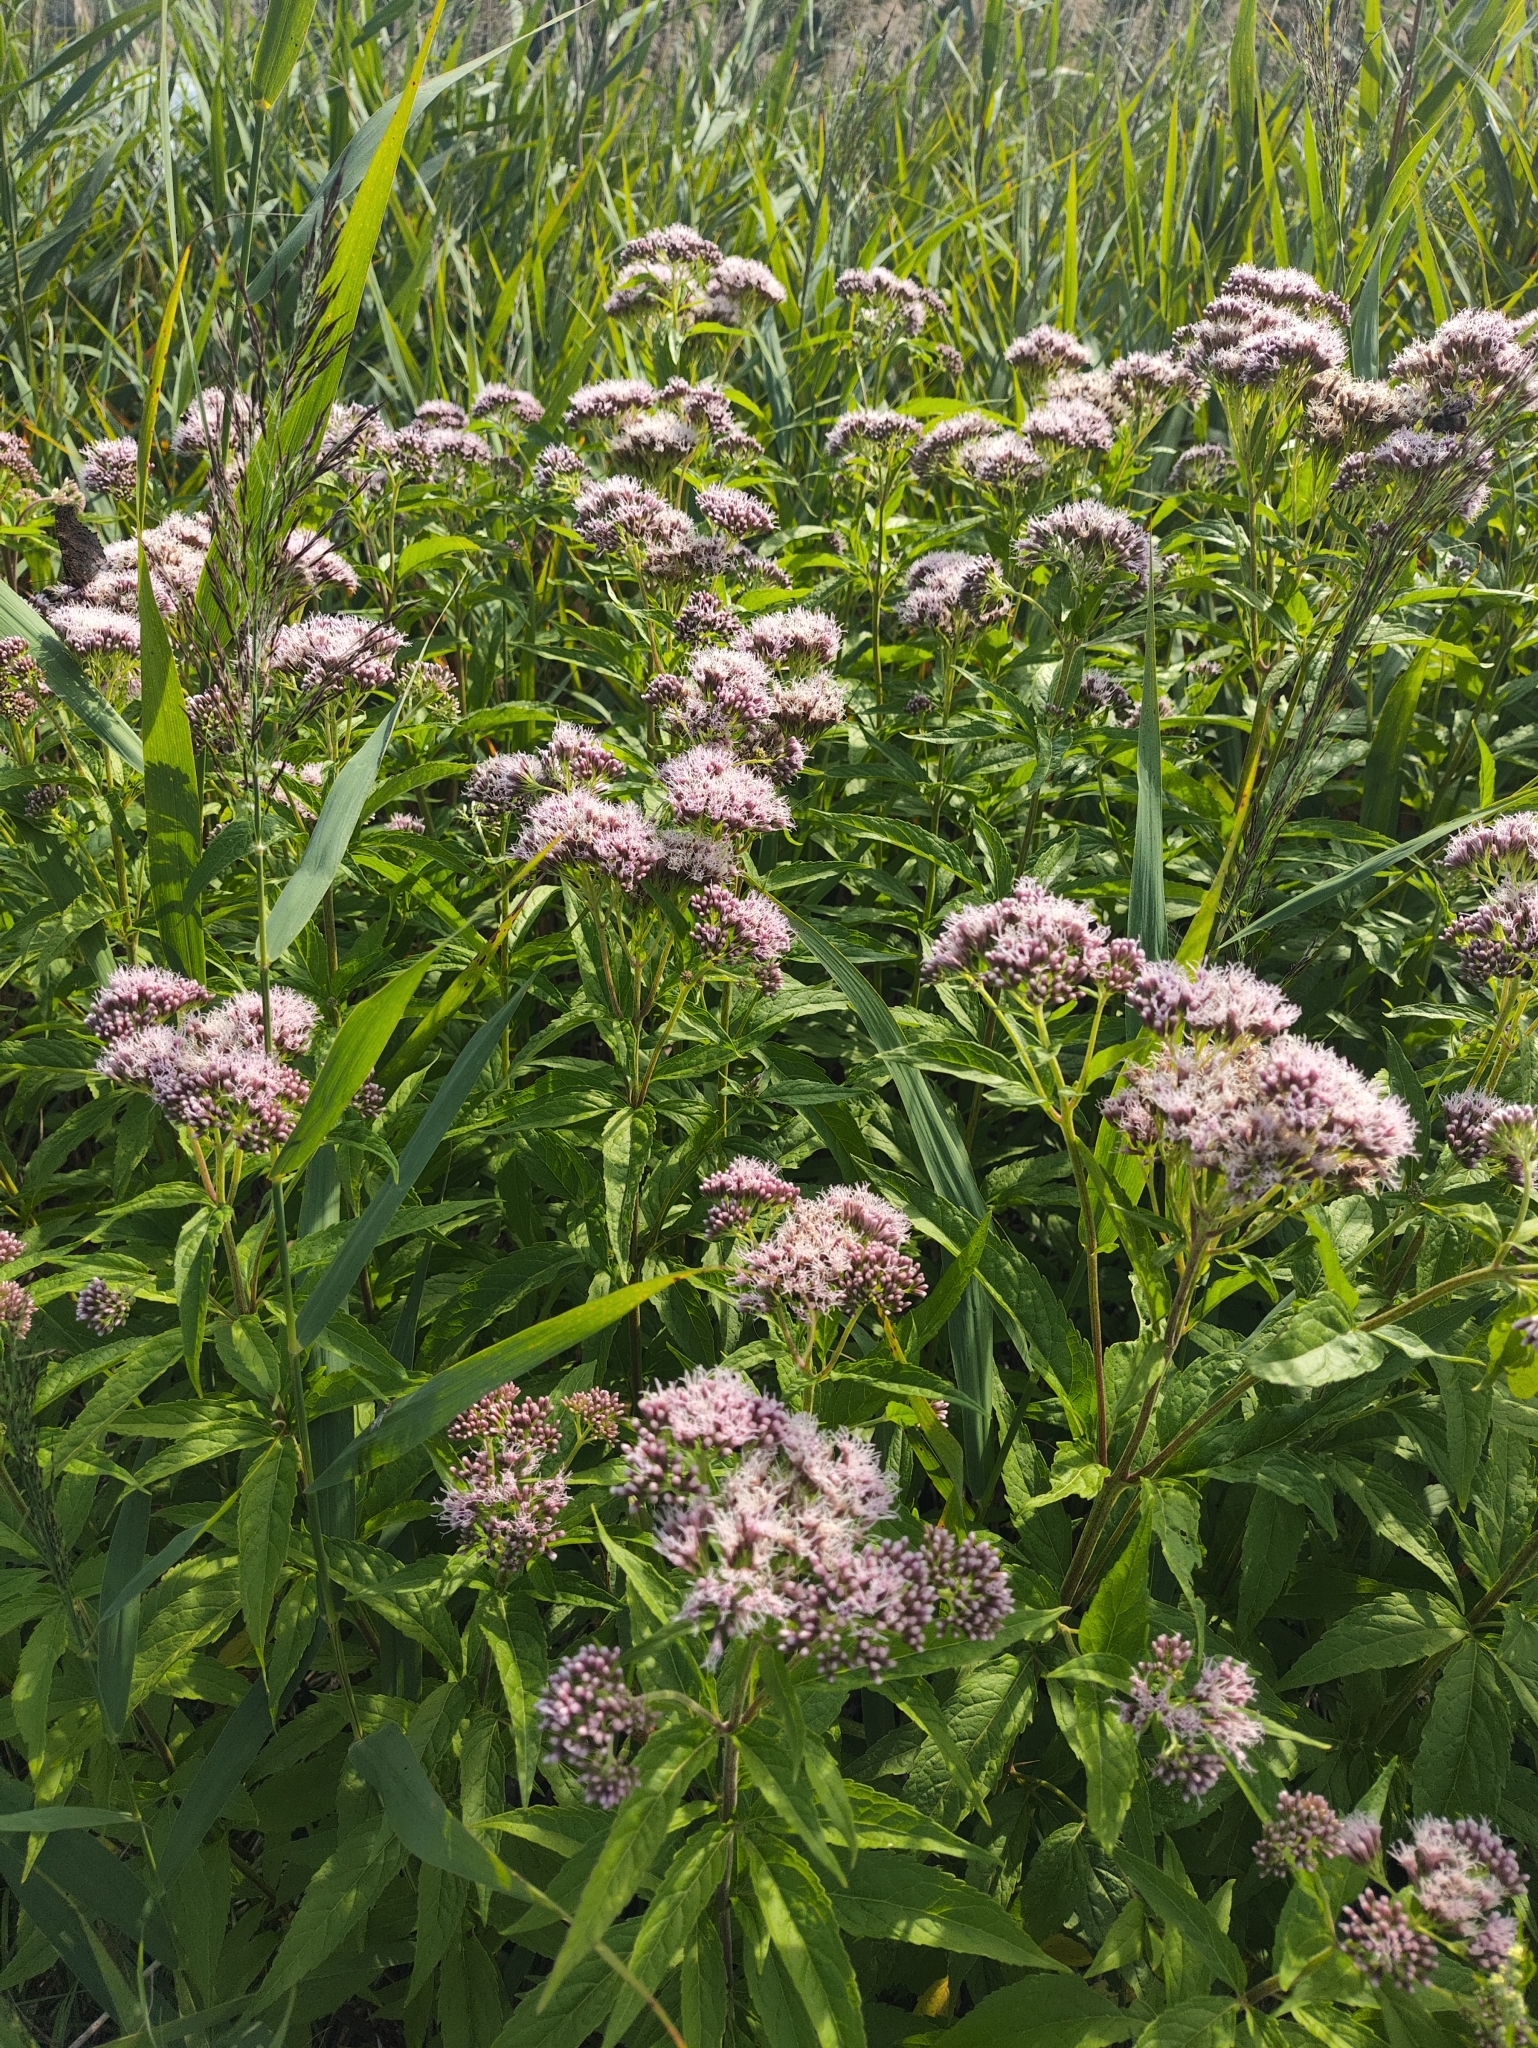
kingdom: Plantae
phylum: Tracheophyta
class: Magnoliopsida
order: Asterales
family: Asteraceae
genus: Eupatorium
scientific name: Eupatorium cannabinum
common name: Hemp-agrimony
